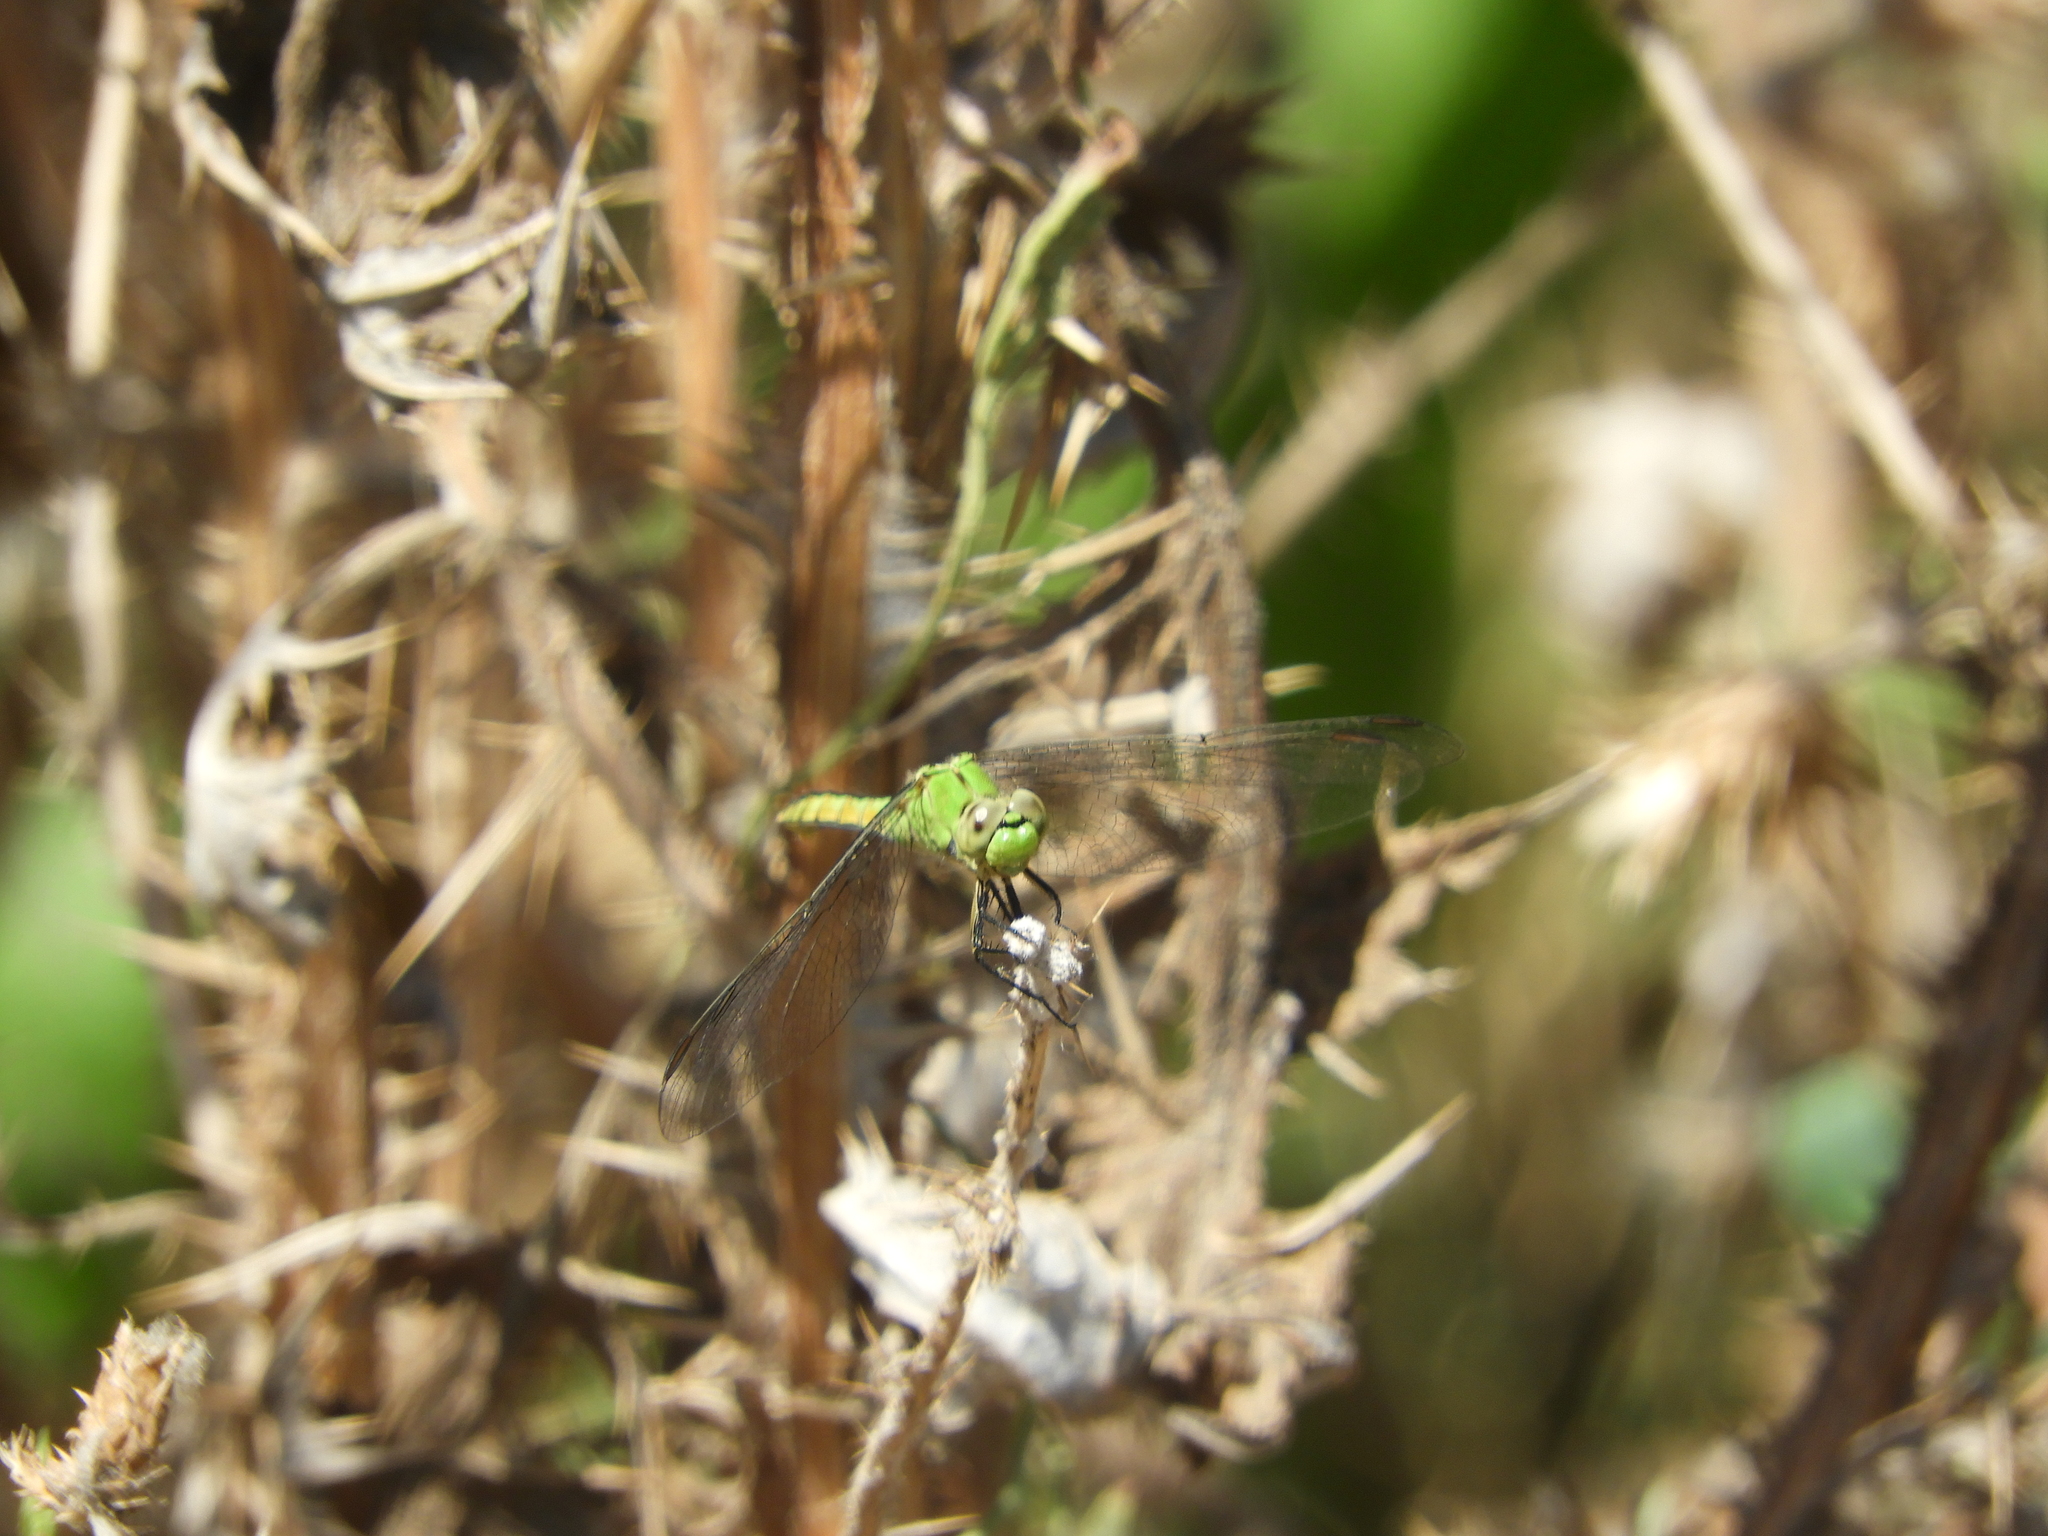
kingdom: Animalia
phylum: Arthropoda
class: Insecta
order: Odonata
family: Libellulidae
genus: Erythemis
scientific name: Erythemis collocata
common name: Western pondhawk
